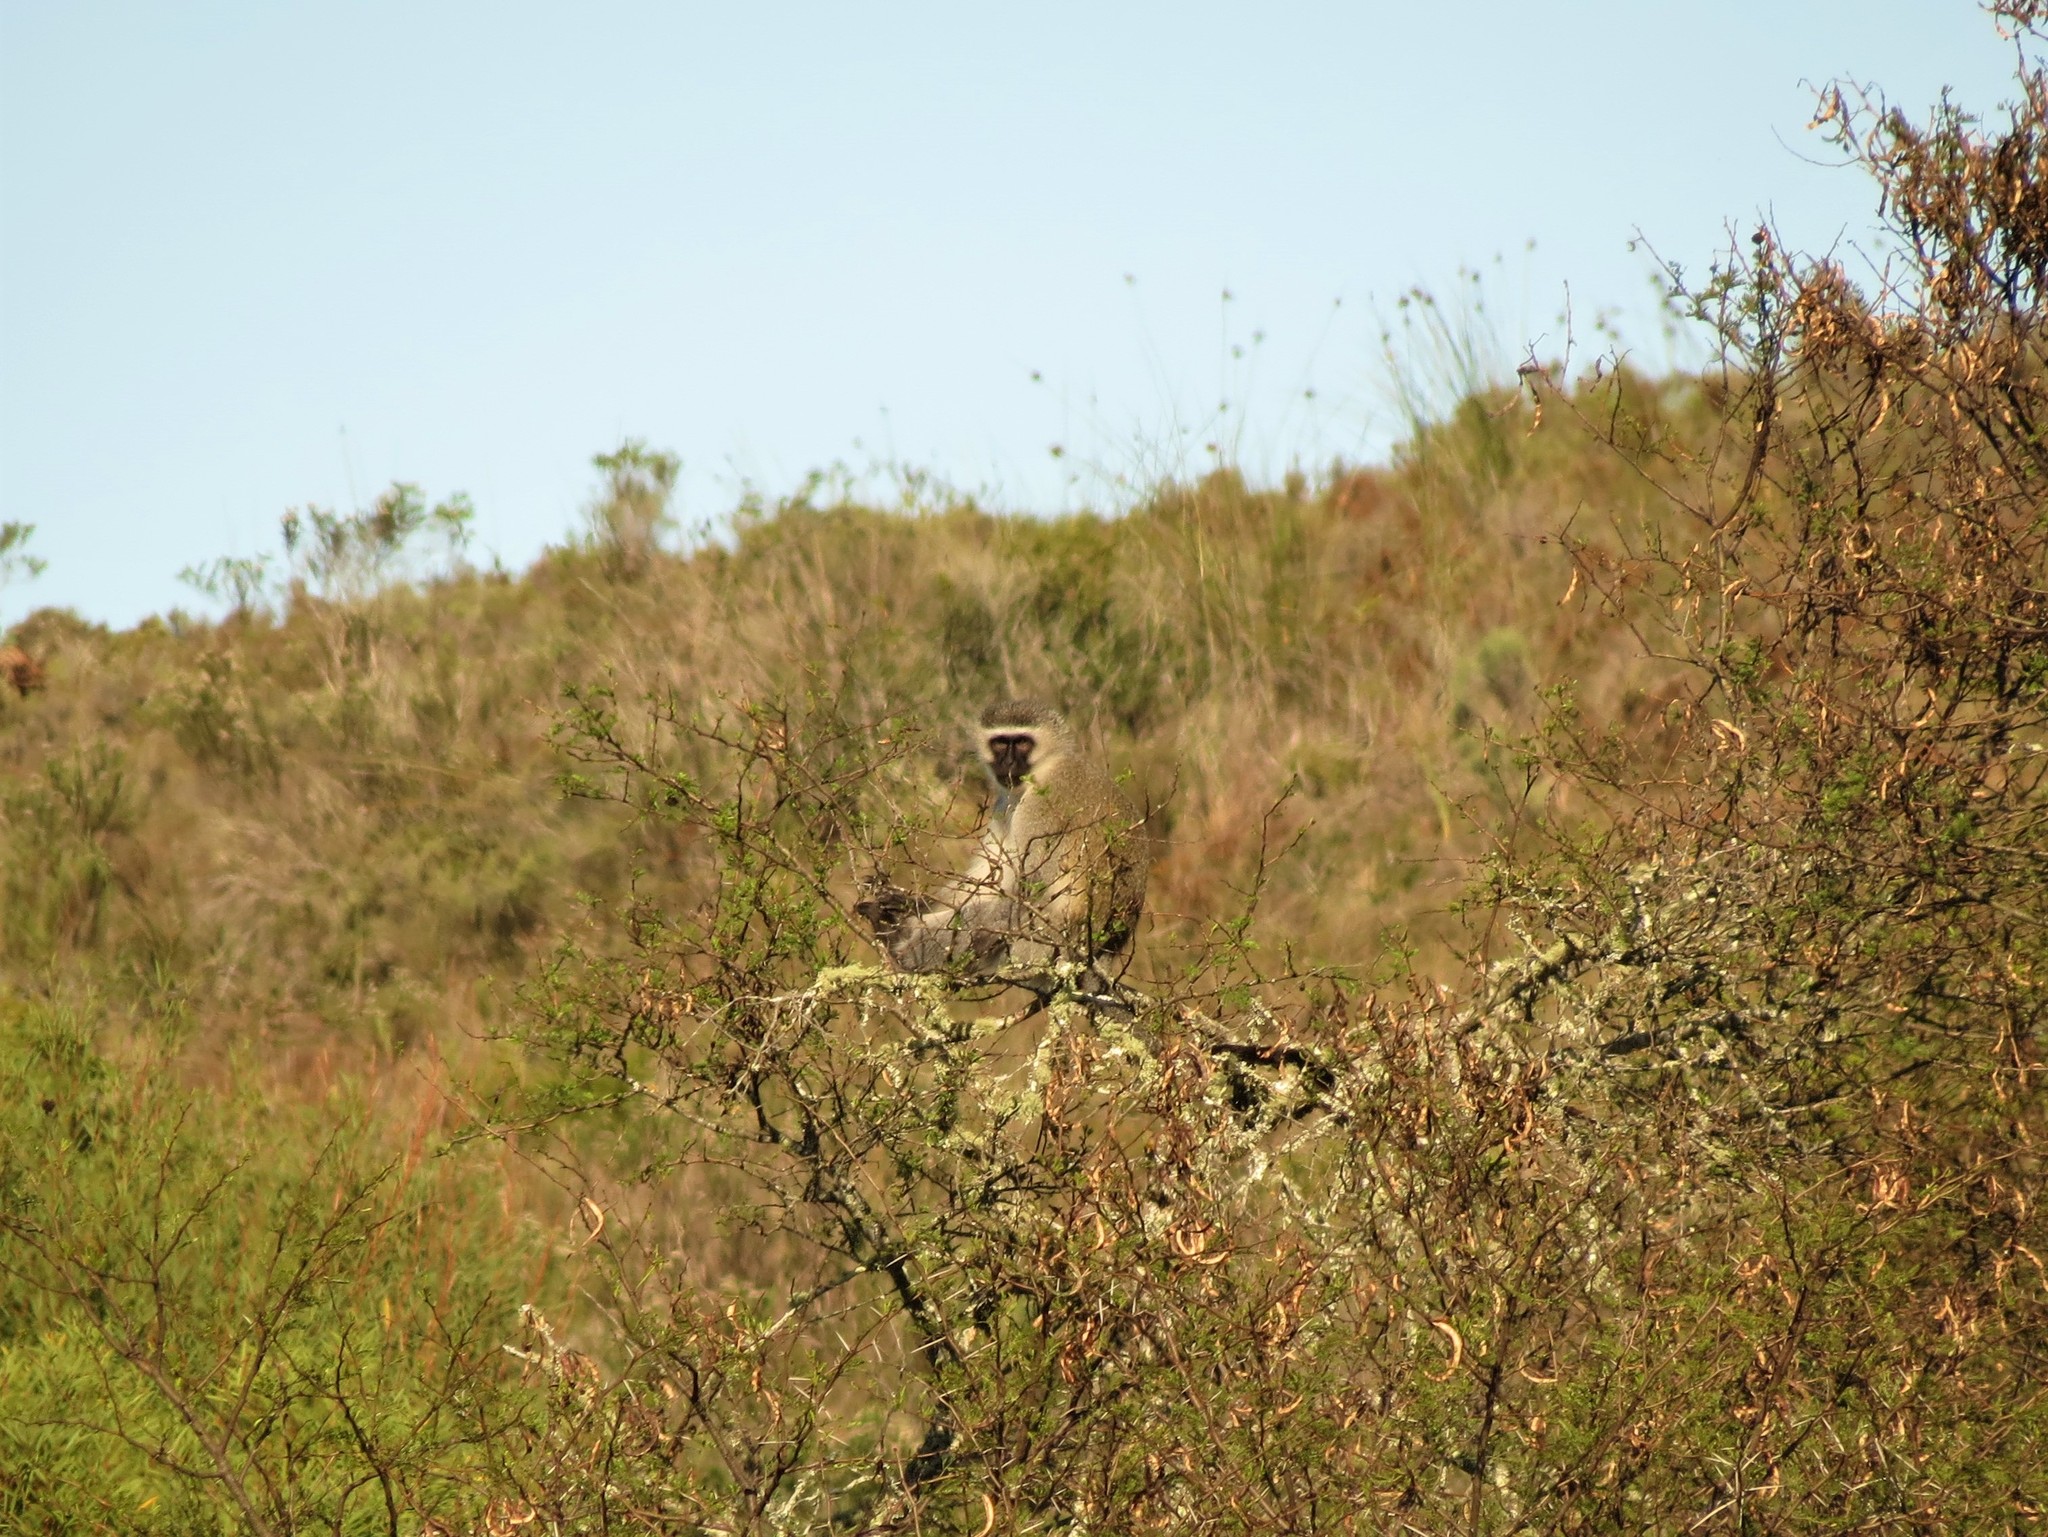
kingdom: Animalia
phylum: Chordata
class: Mammalia
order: Primates
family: Cercopithecidae
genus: Chlorocebus
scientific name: Chlorocebus pygerythrus
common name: Vervet monkey
